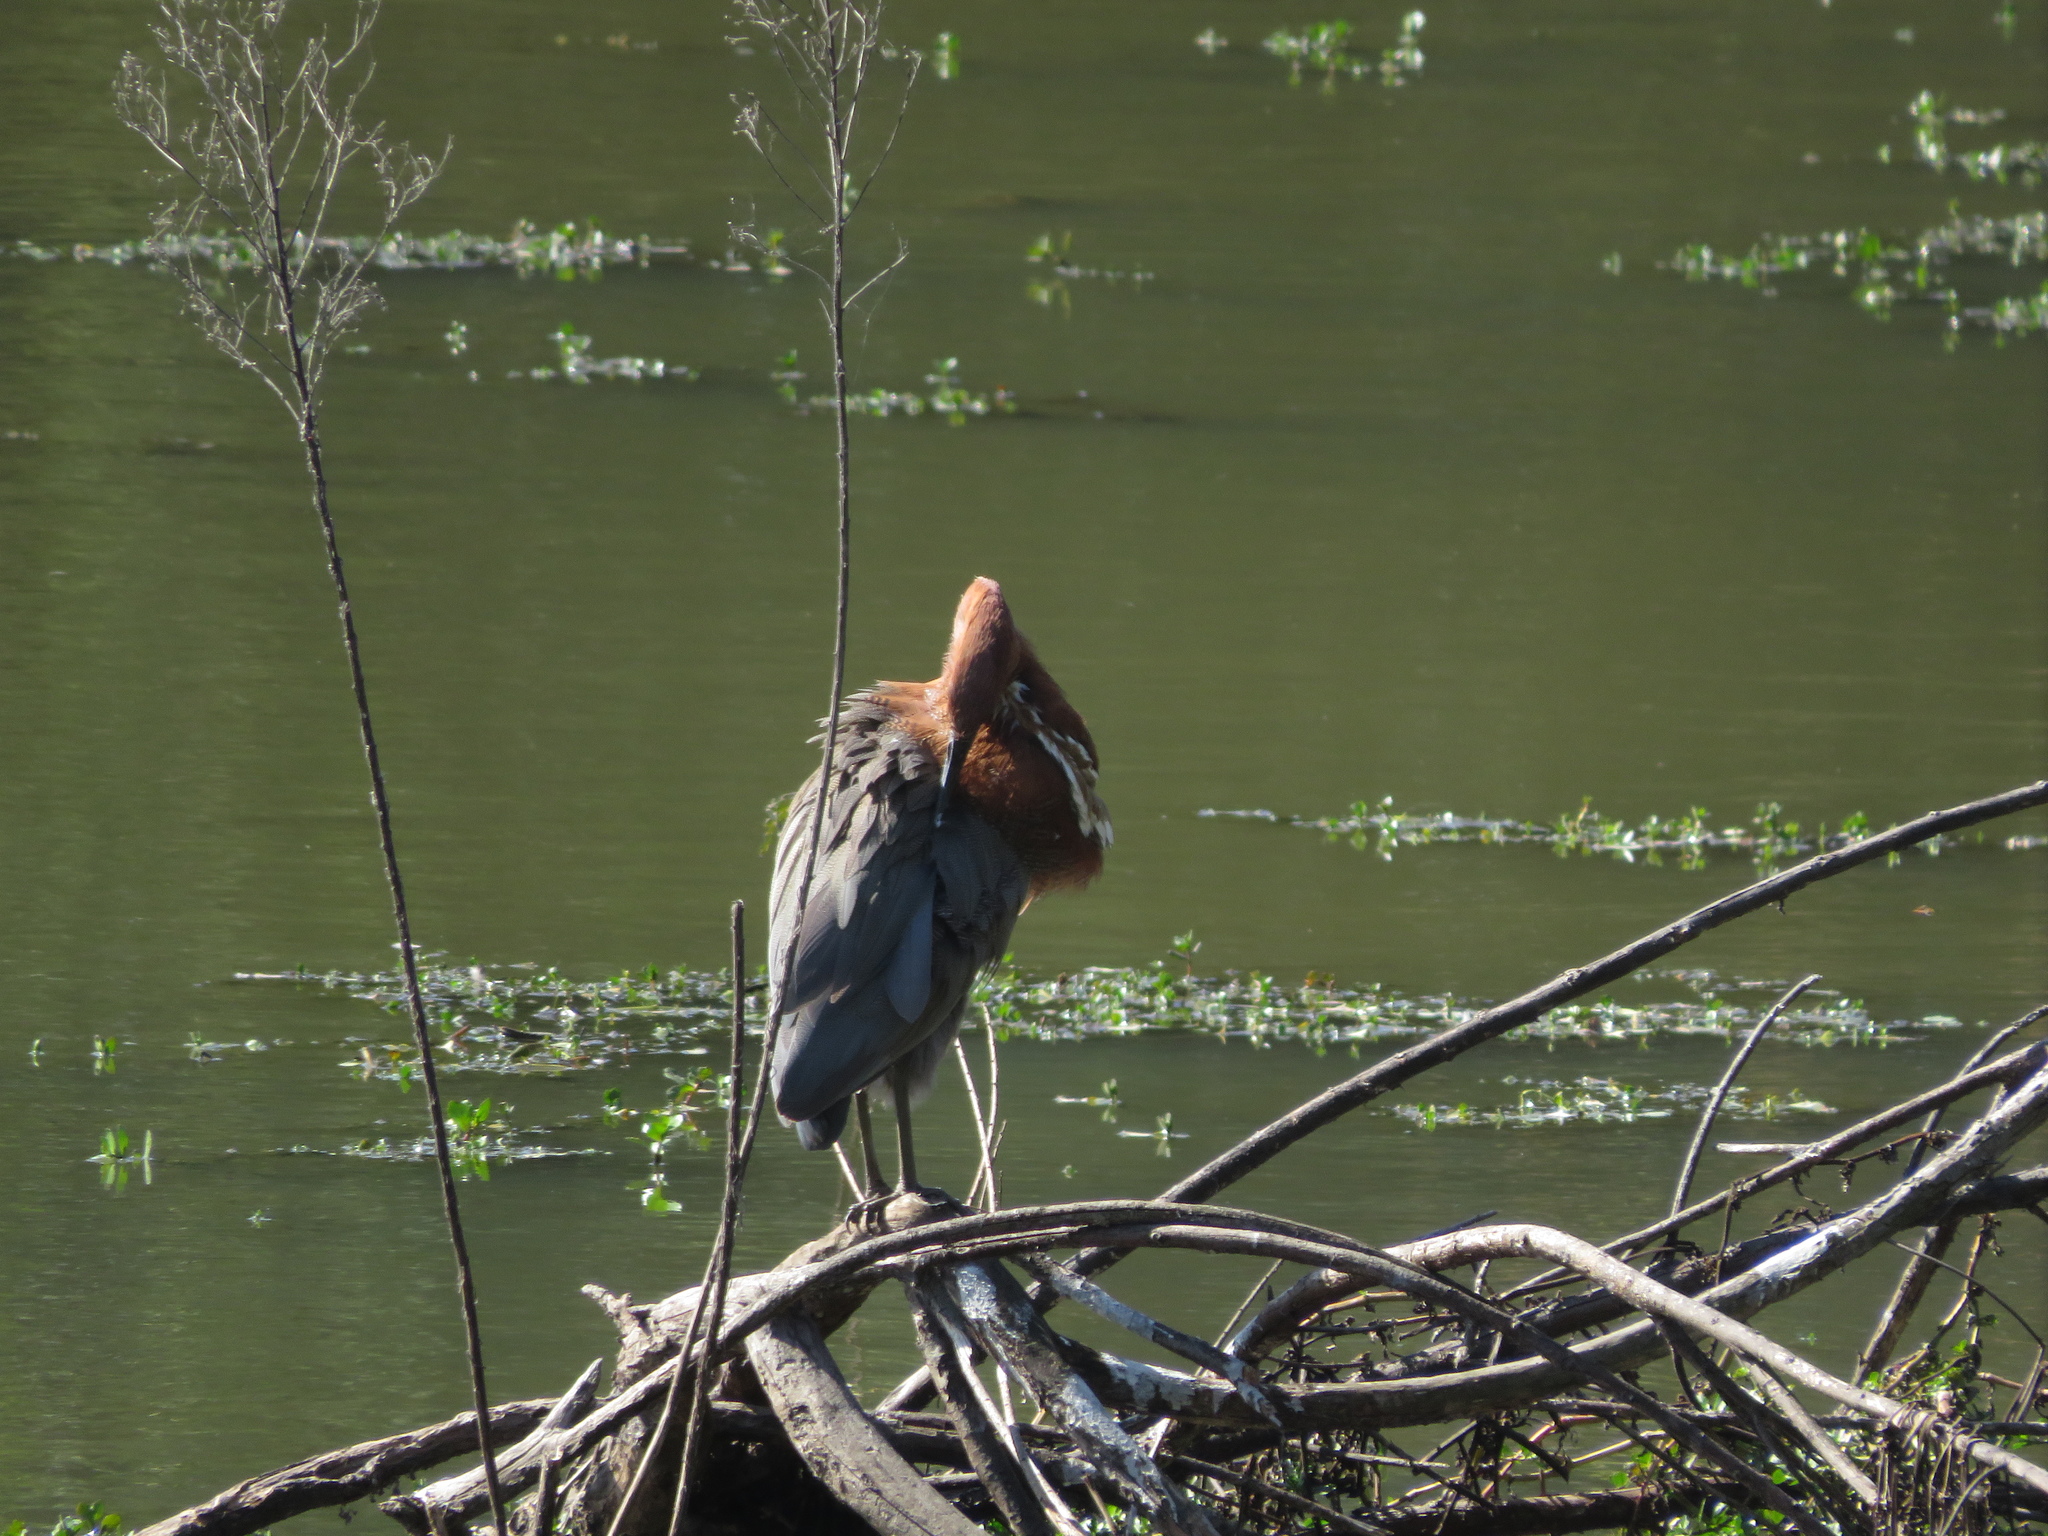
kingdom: Animalia
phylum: Chordata
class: Aves
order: Pelecaniformes
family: Ardeidae
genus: Tigrisoma
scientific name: Tigrisoma lineatum
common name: Rufescent tiger-heron
